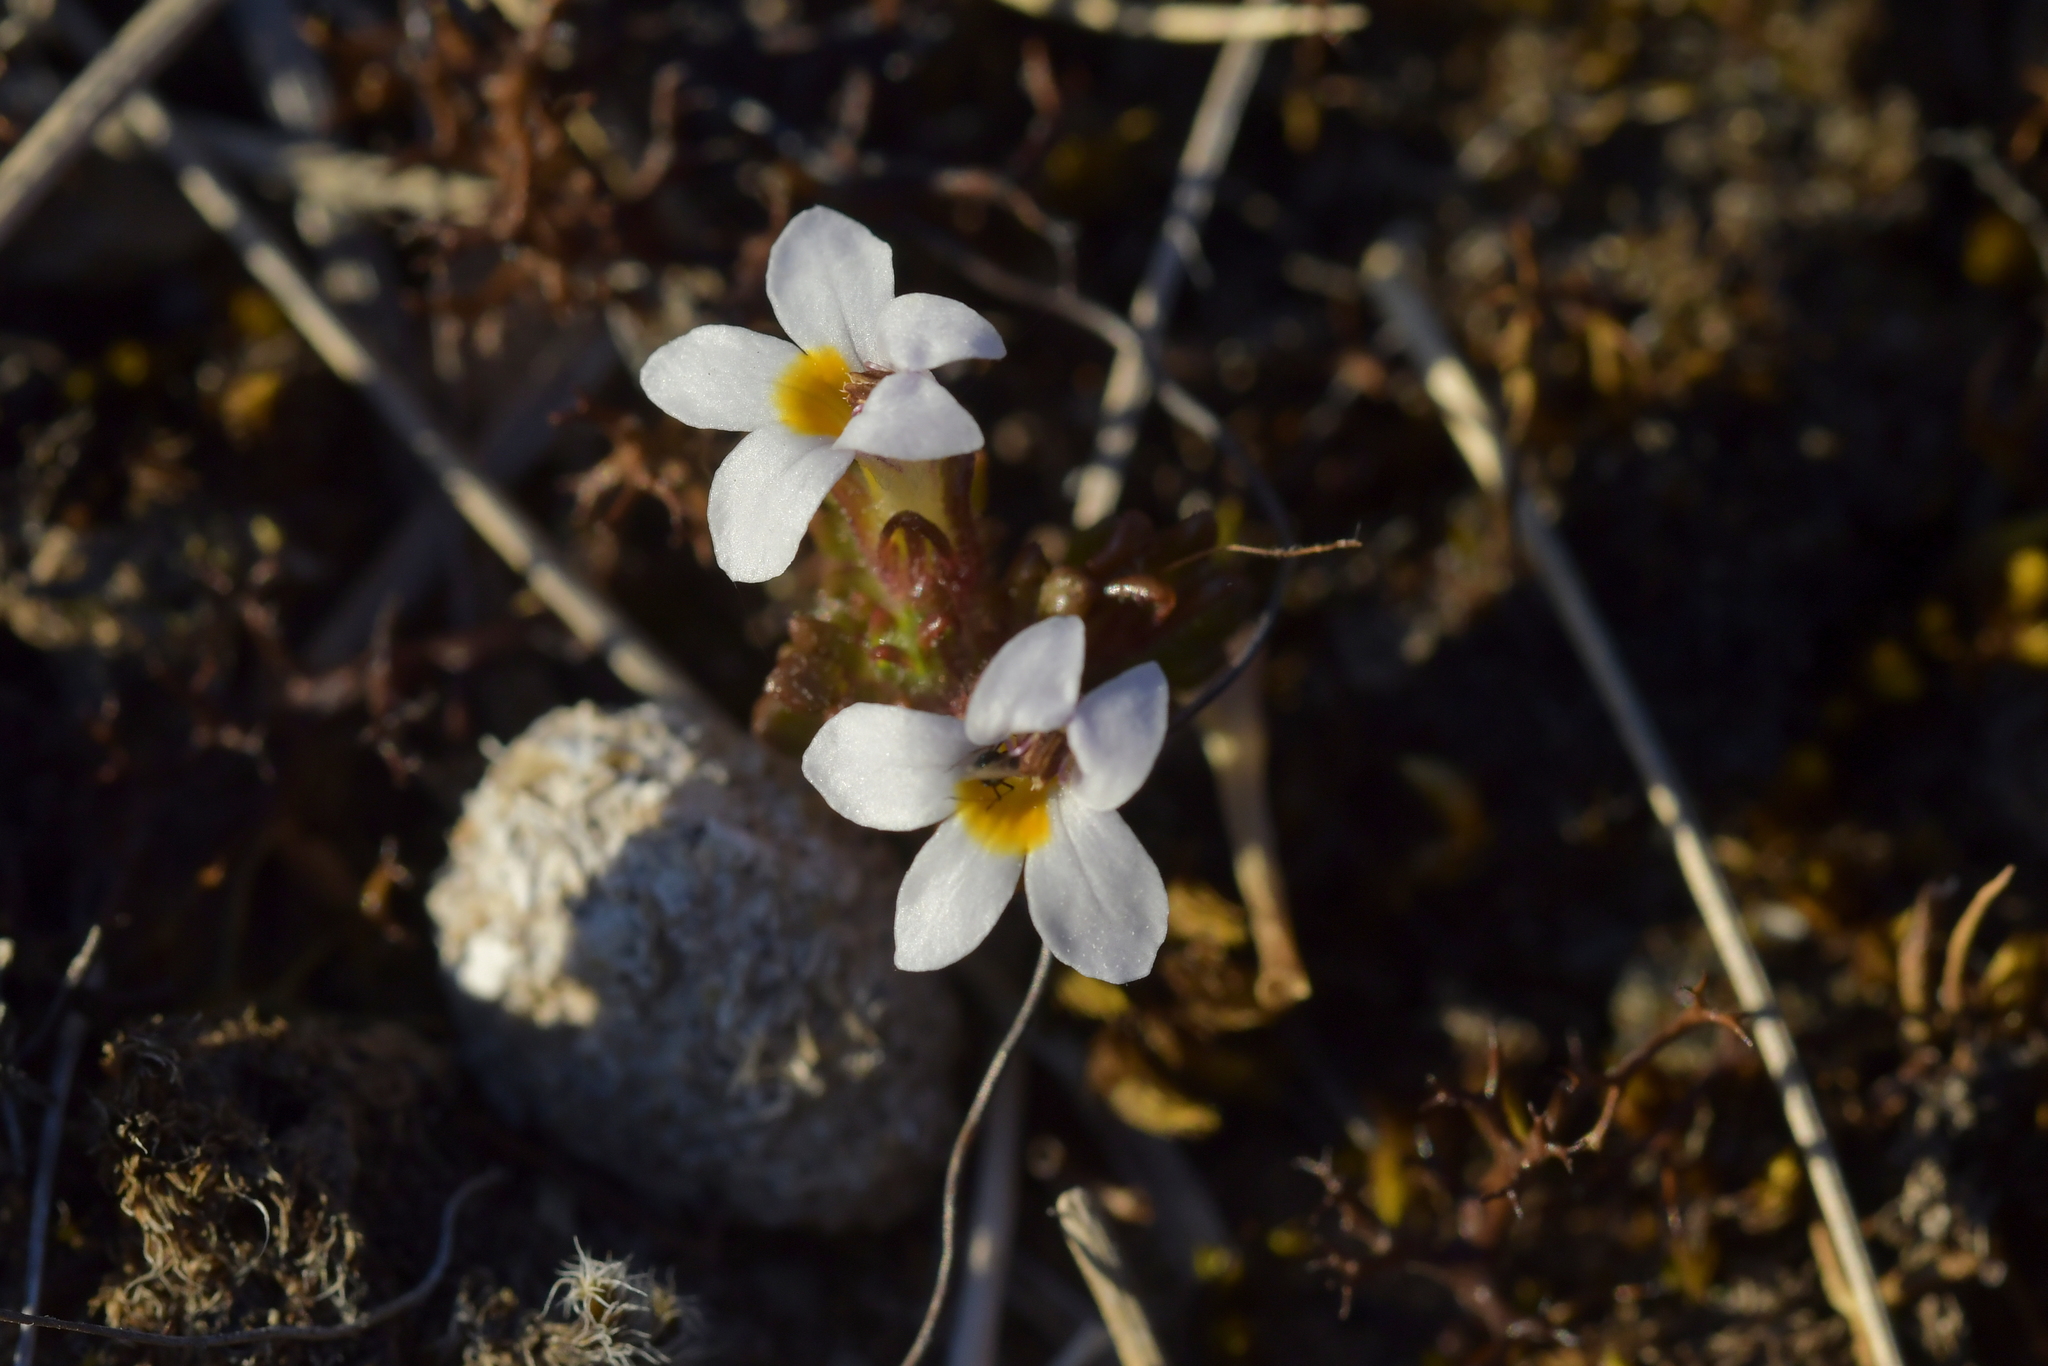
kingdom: Plantae
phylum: Tracheophyta
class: Magnoliopsida
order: Lamiales
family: Orobanchaceae
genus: Euphrasia
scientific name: Euphrasia zelandica
